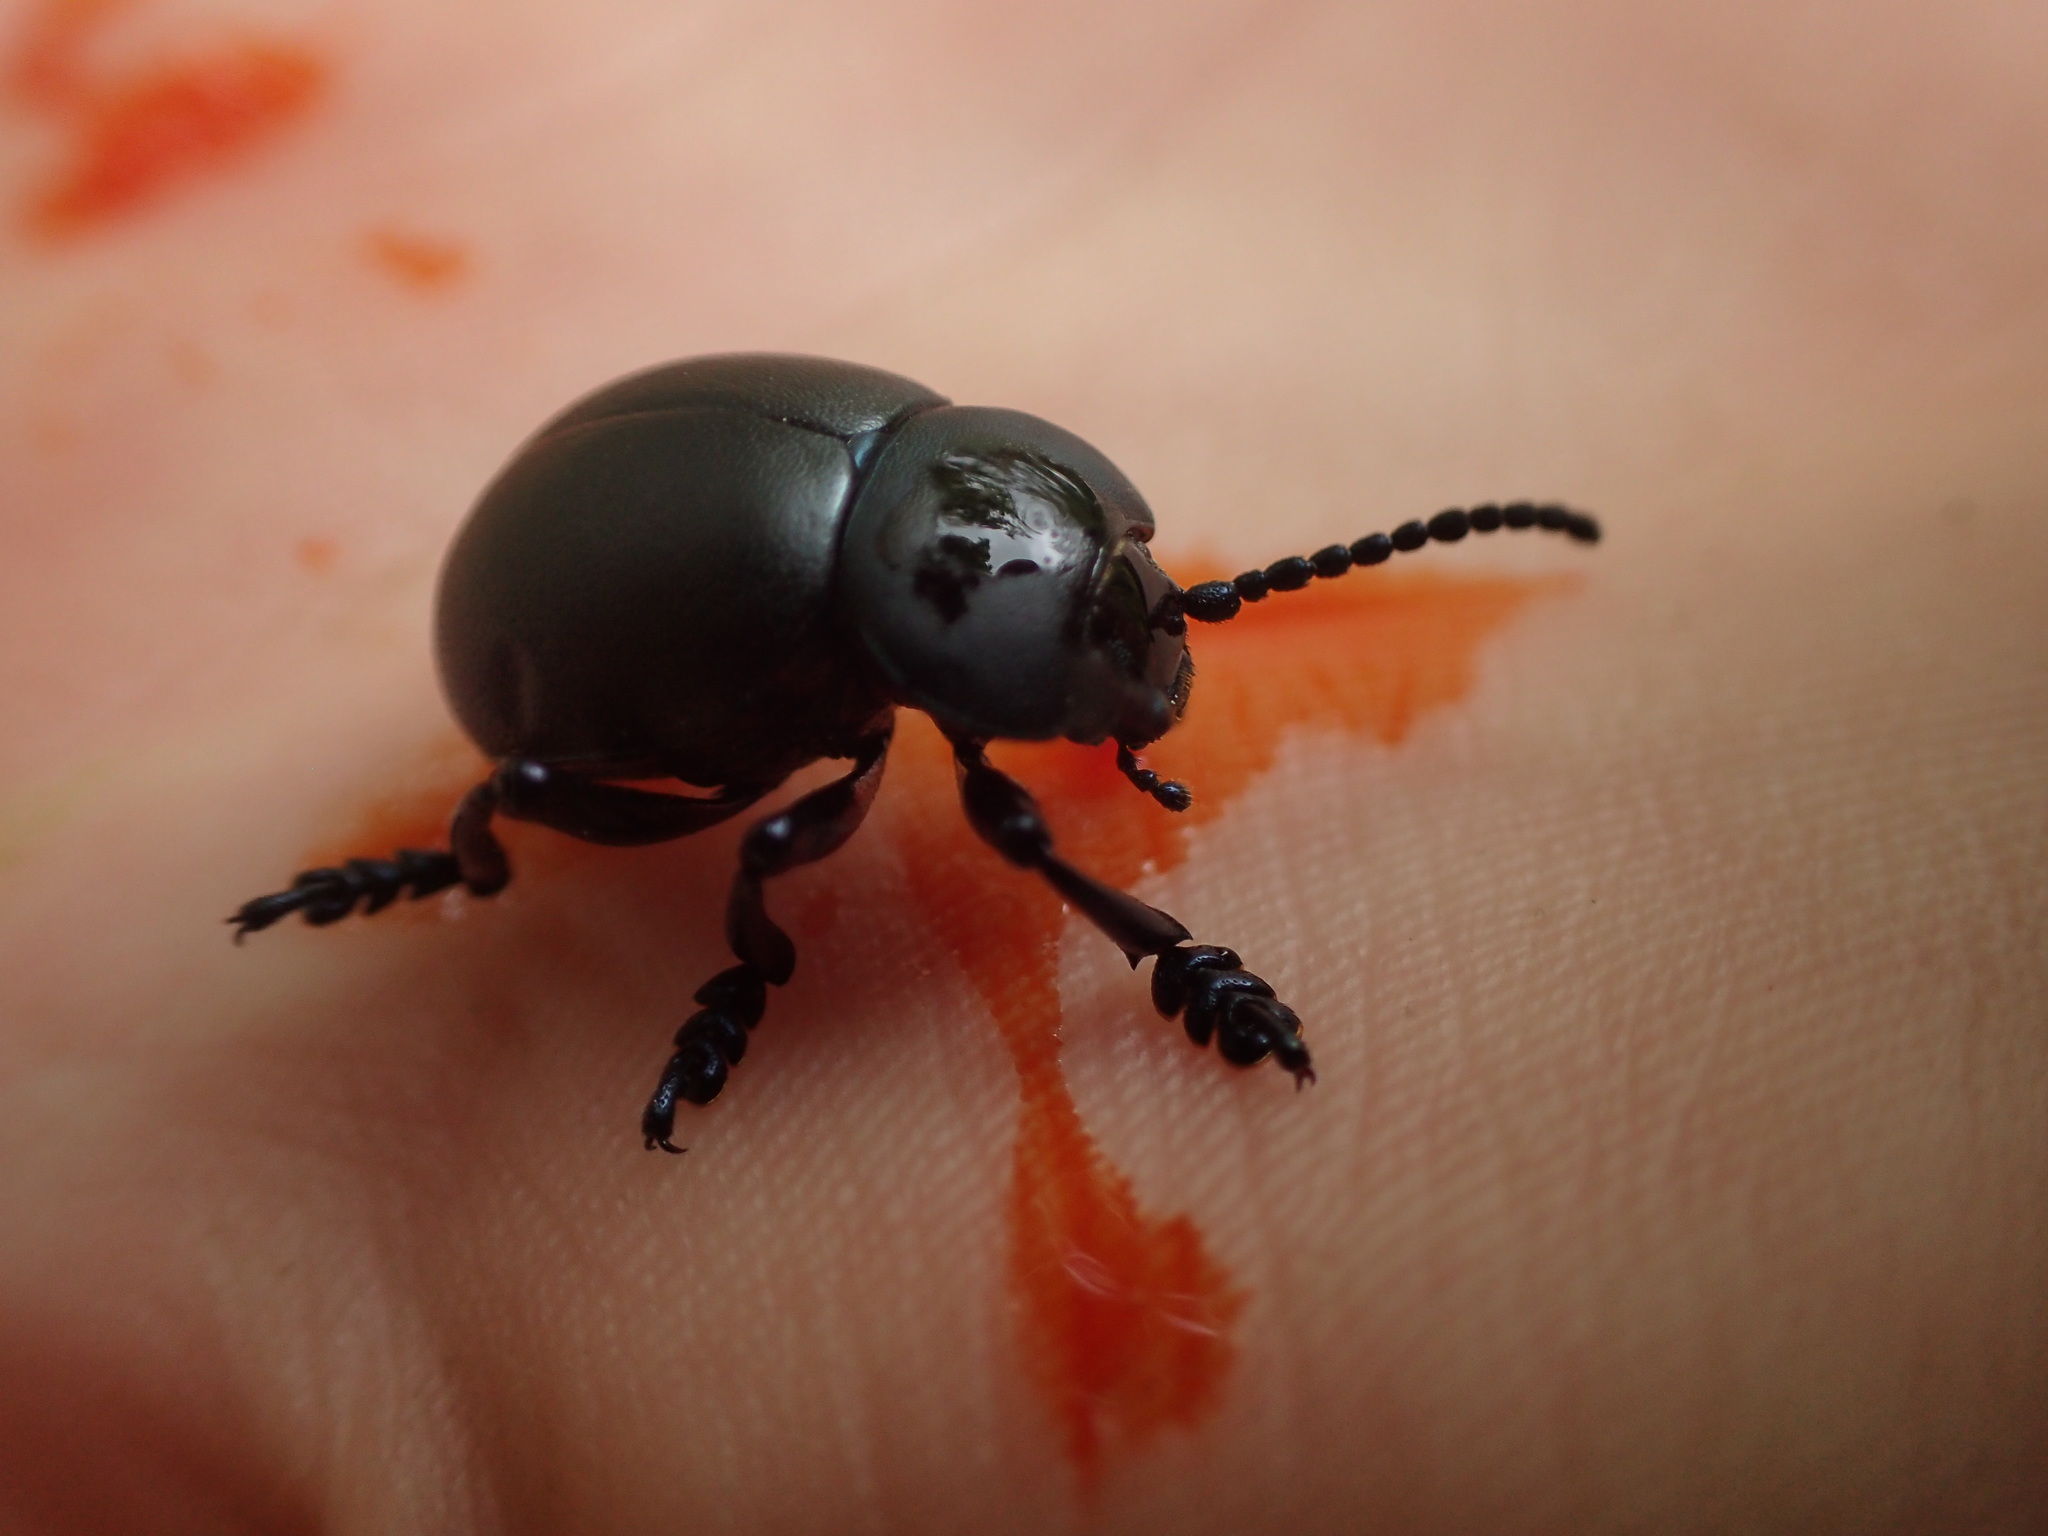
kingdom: Animalia
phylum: Arthropoda
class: Insecta
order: Coleoptera
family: Chrysomelidae
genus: Timarcha
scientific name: Timarcha tenebricosa
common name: Bloody-nosed beetle
